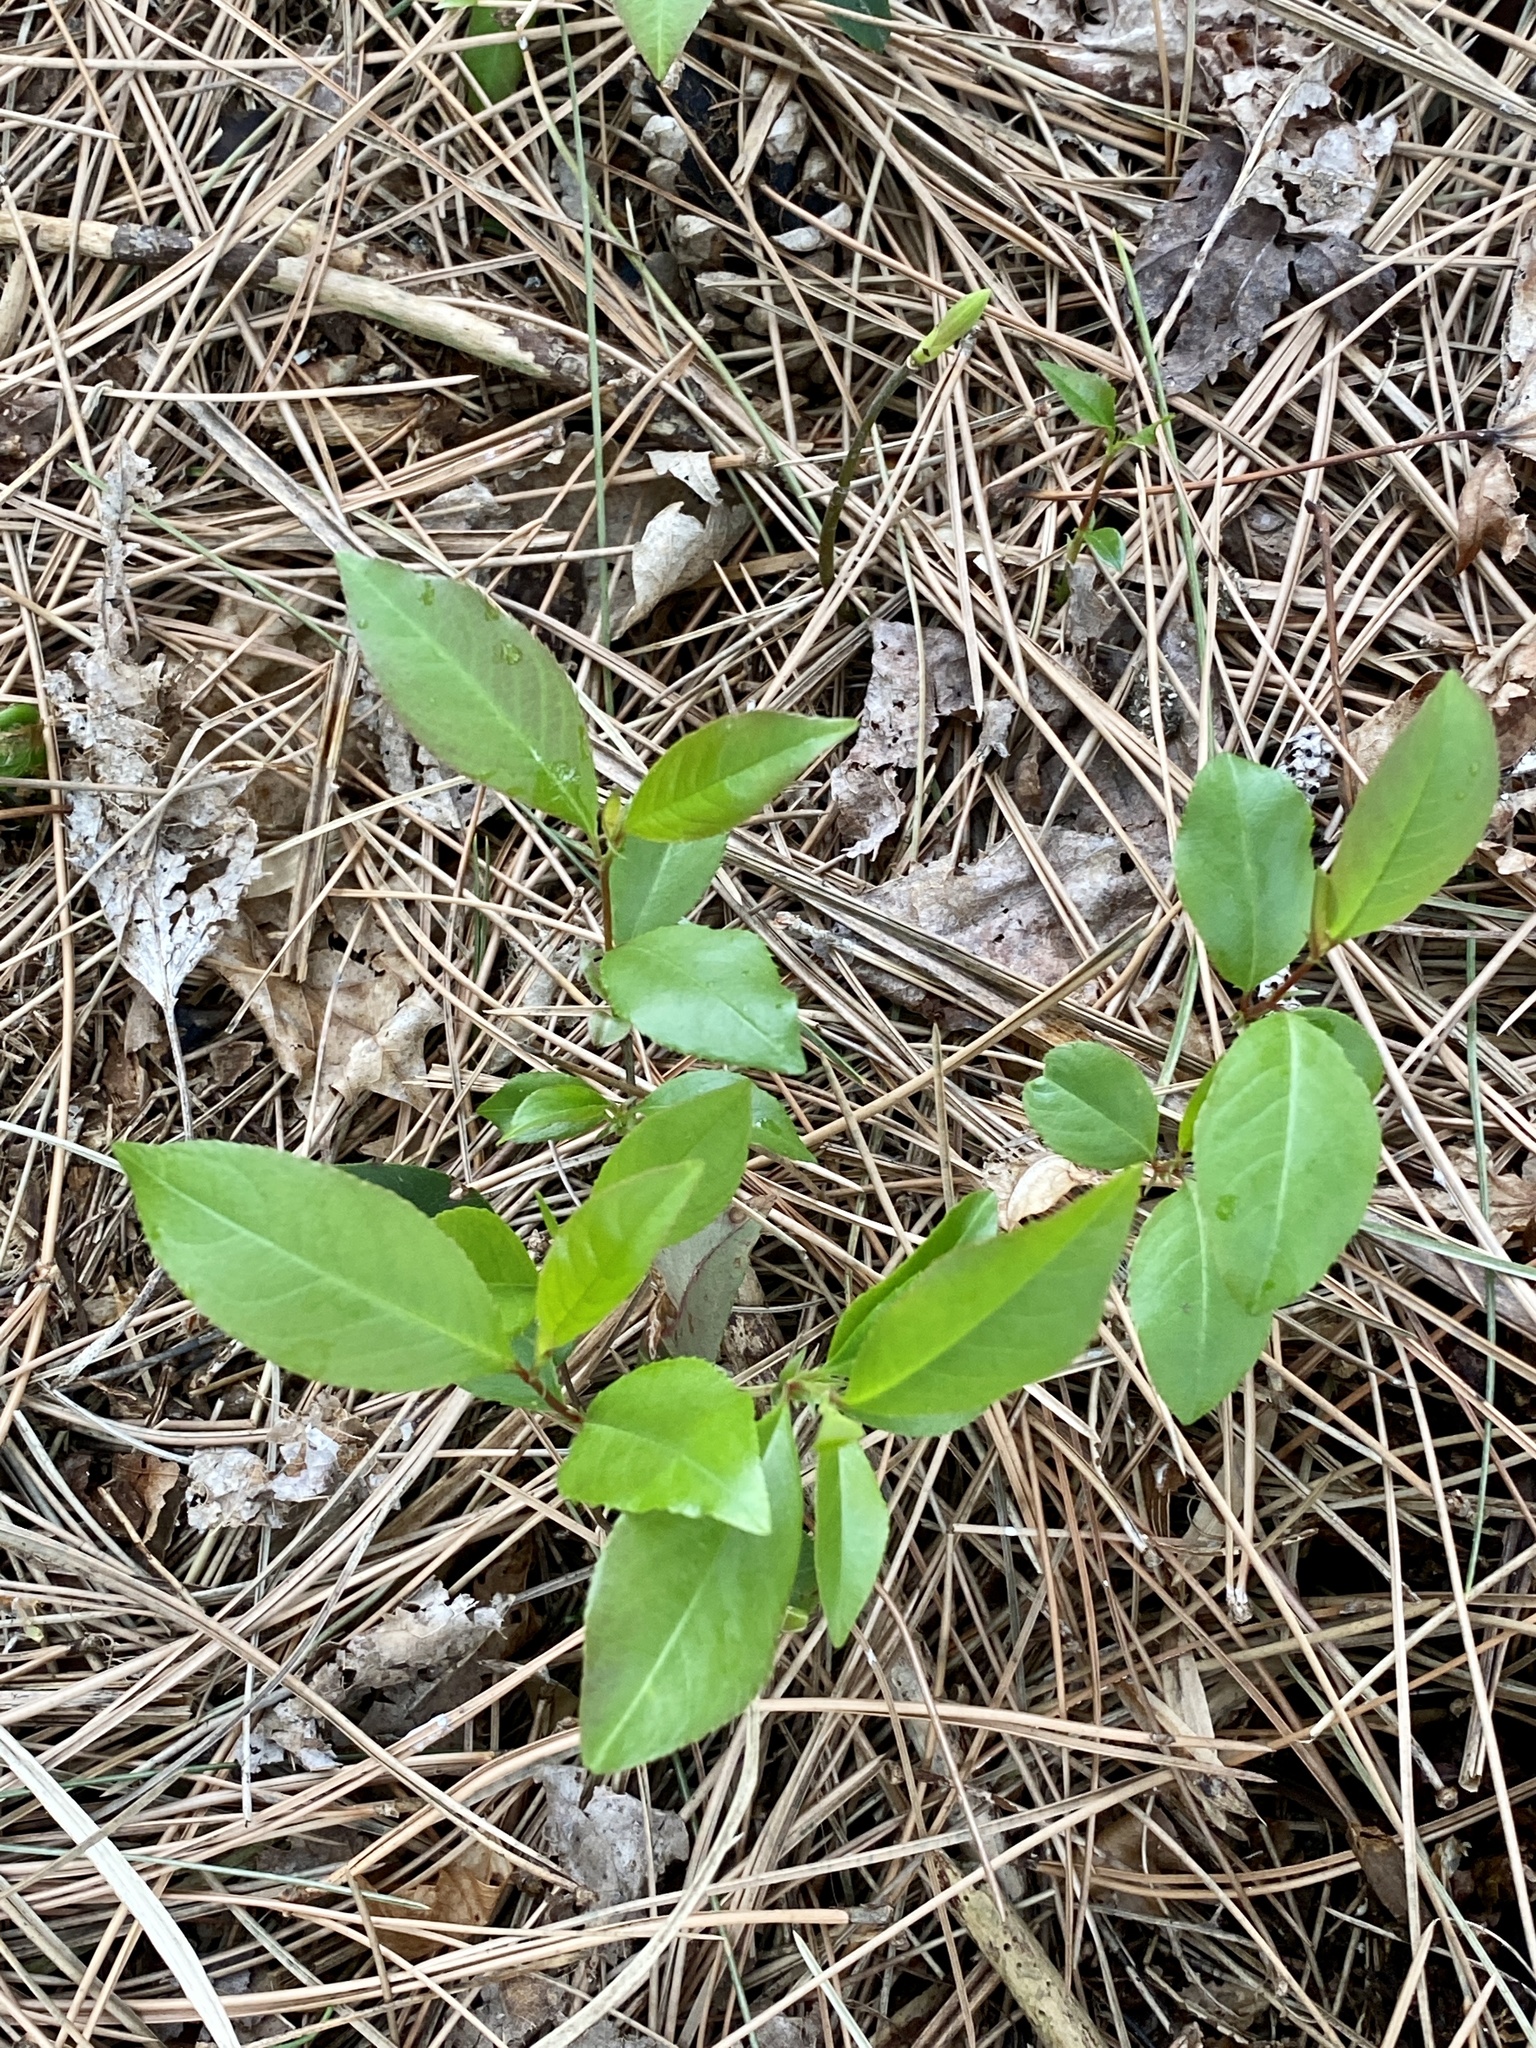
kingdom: Plantae
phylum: Tracheophyta
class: Magnoliopsida
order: Rosales
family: Rosaceae
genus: Prunus
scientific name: Prunus serotina
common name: Black cherry
